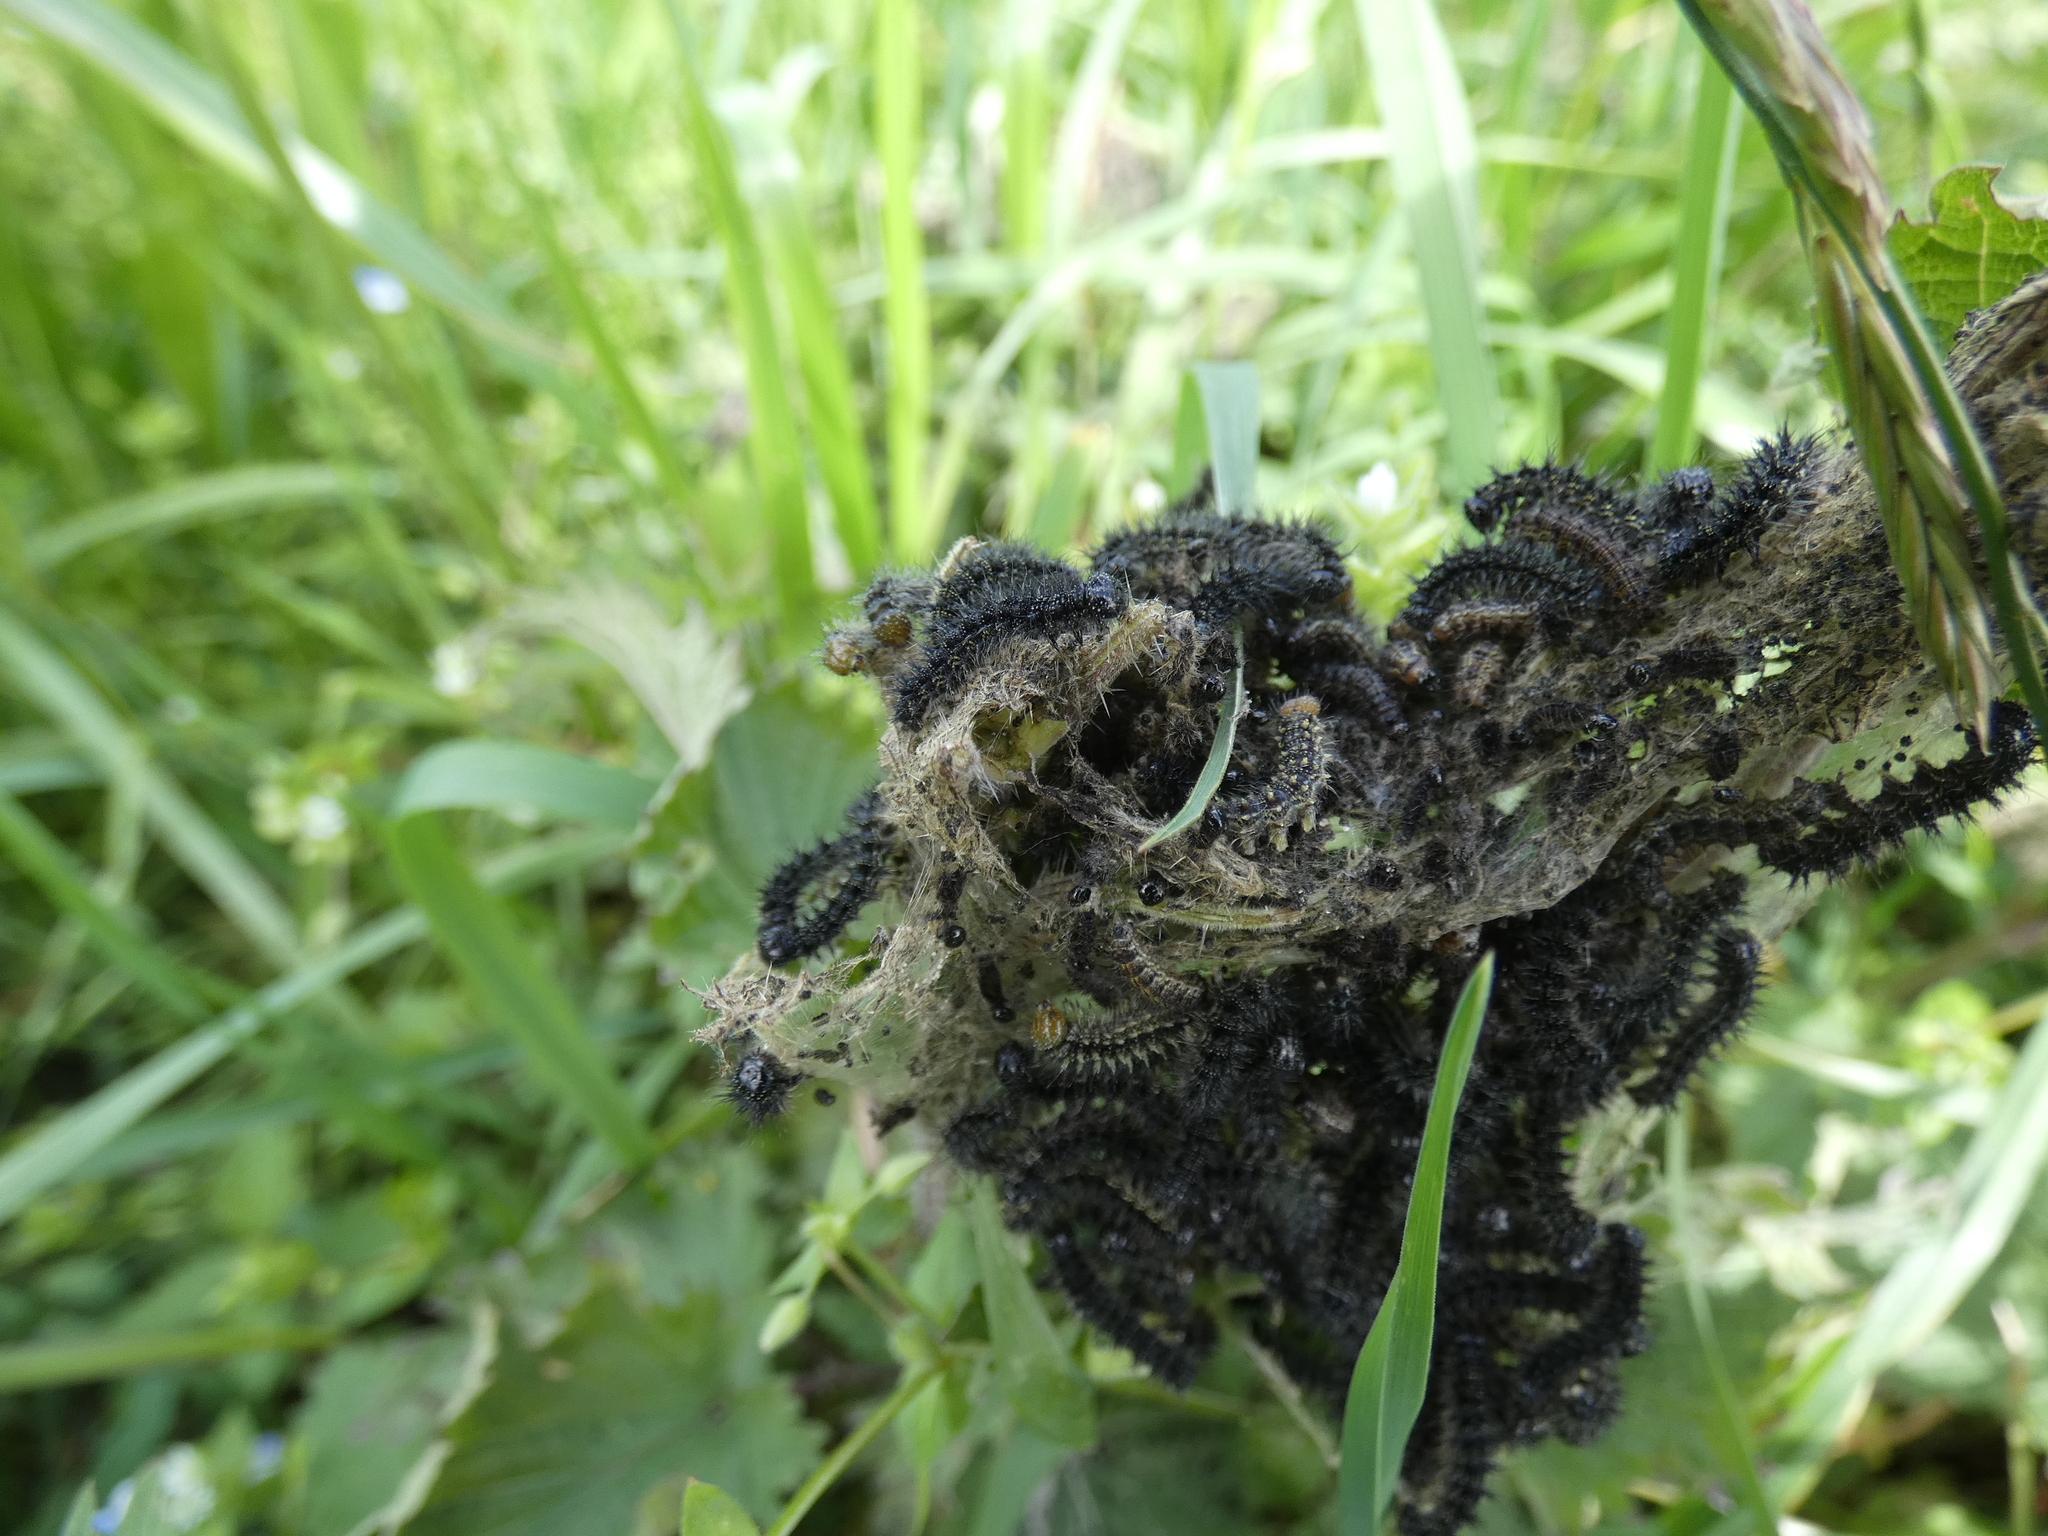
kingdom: Animalia
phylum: Arthropoda
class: Insecta
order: Lepidoptera
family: Nymphalidae
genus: Aglais
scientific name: Aglais urticae
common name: Small tortoiseshell
